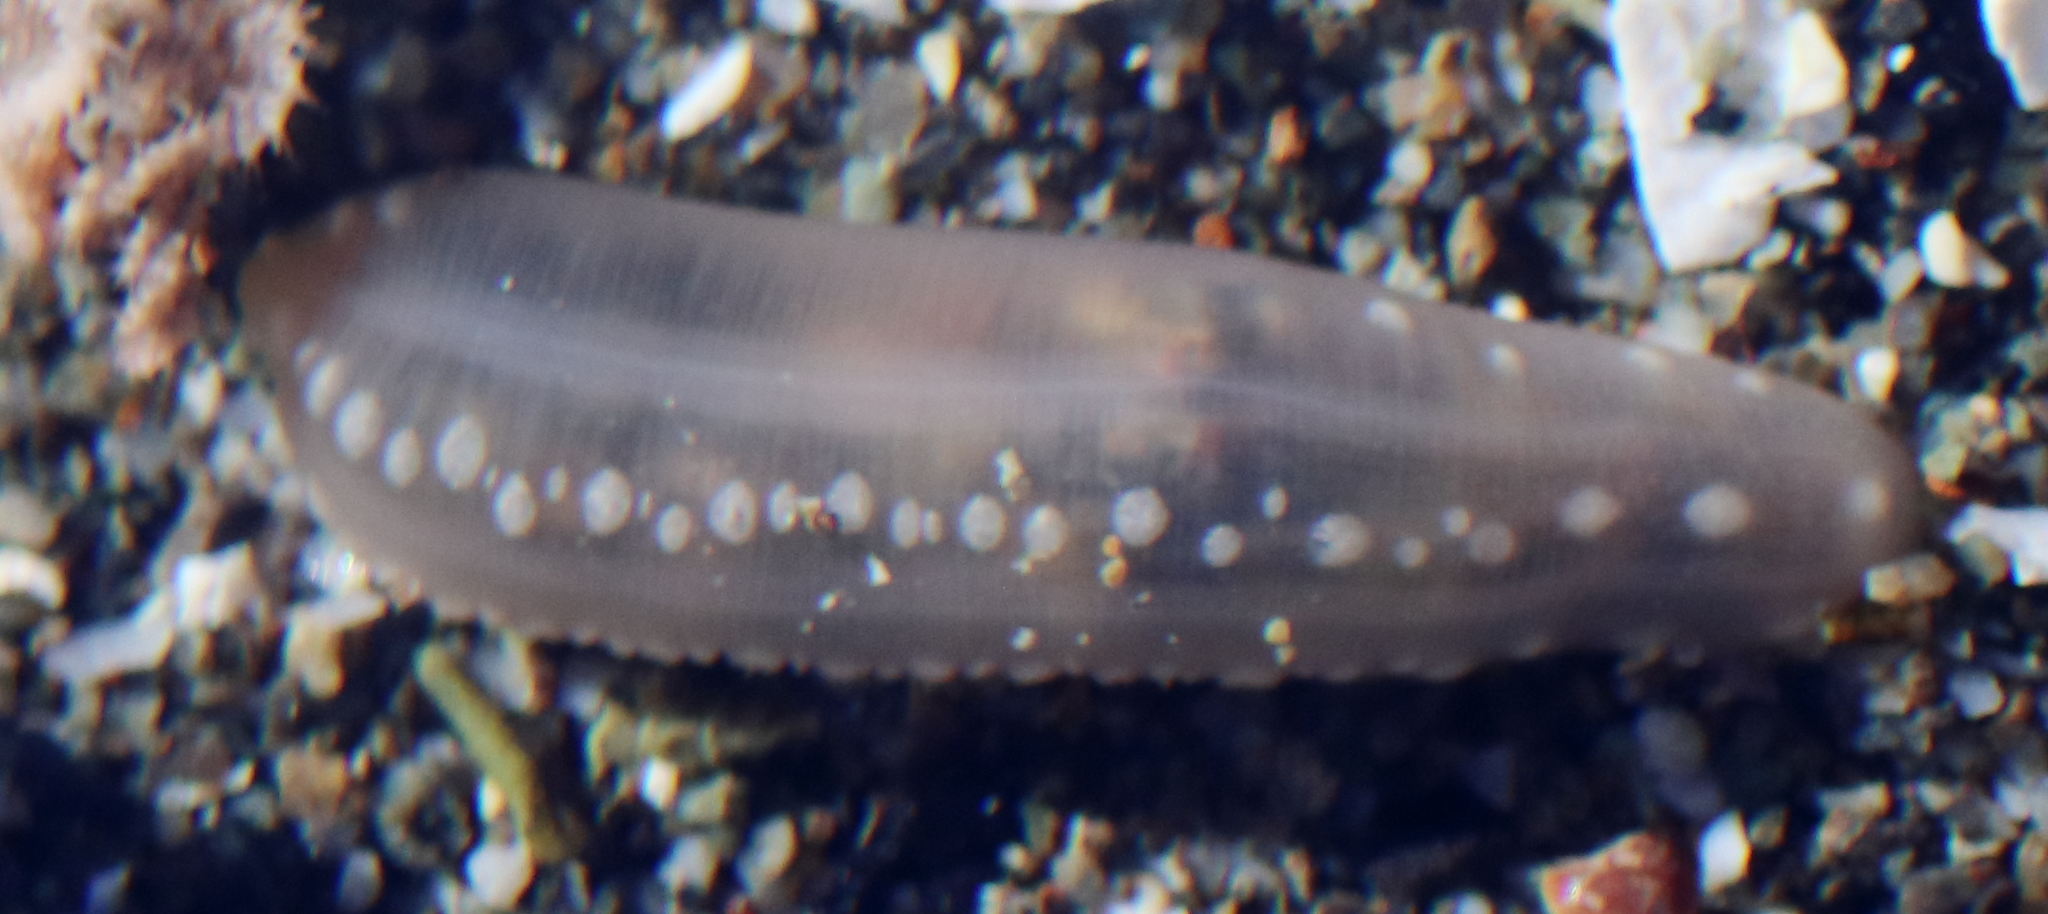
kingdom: Animalia
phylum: Echinodermata
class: Holothuroidea
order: Apodida
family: Chiridotidae
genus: Chiridota
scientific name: Chiridota discolor
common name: Jellybean footless sea cucumber
